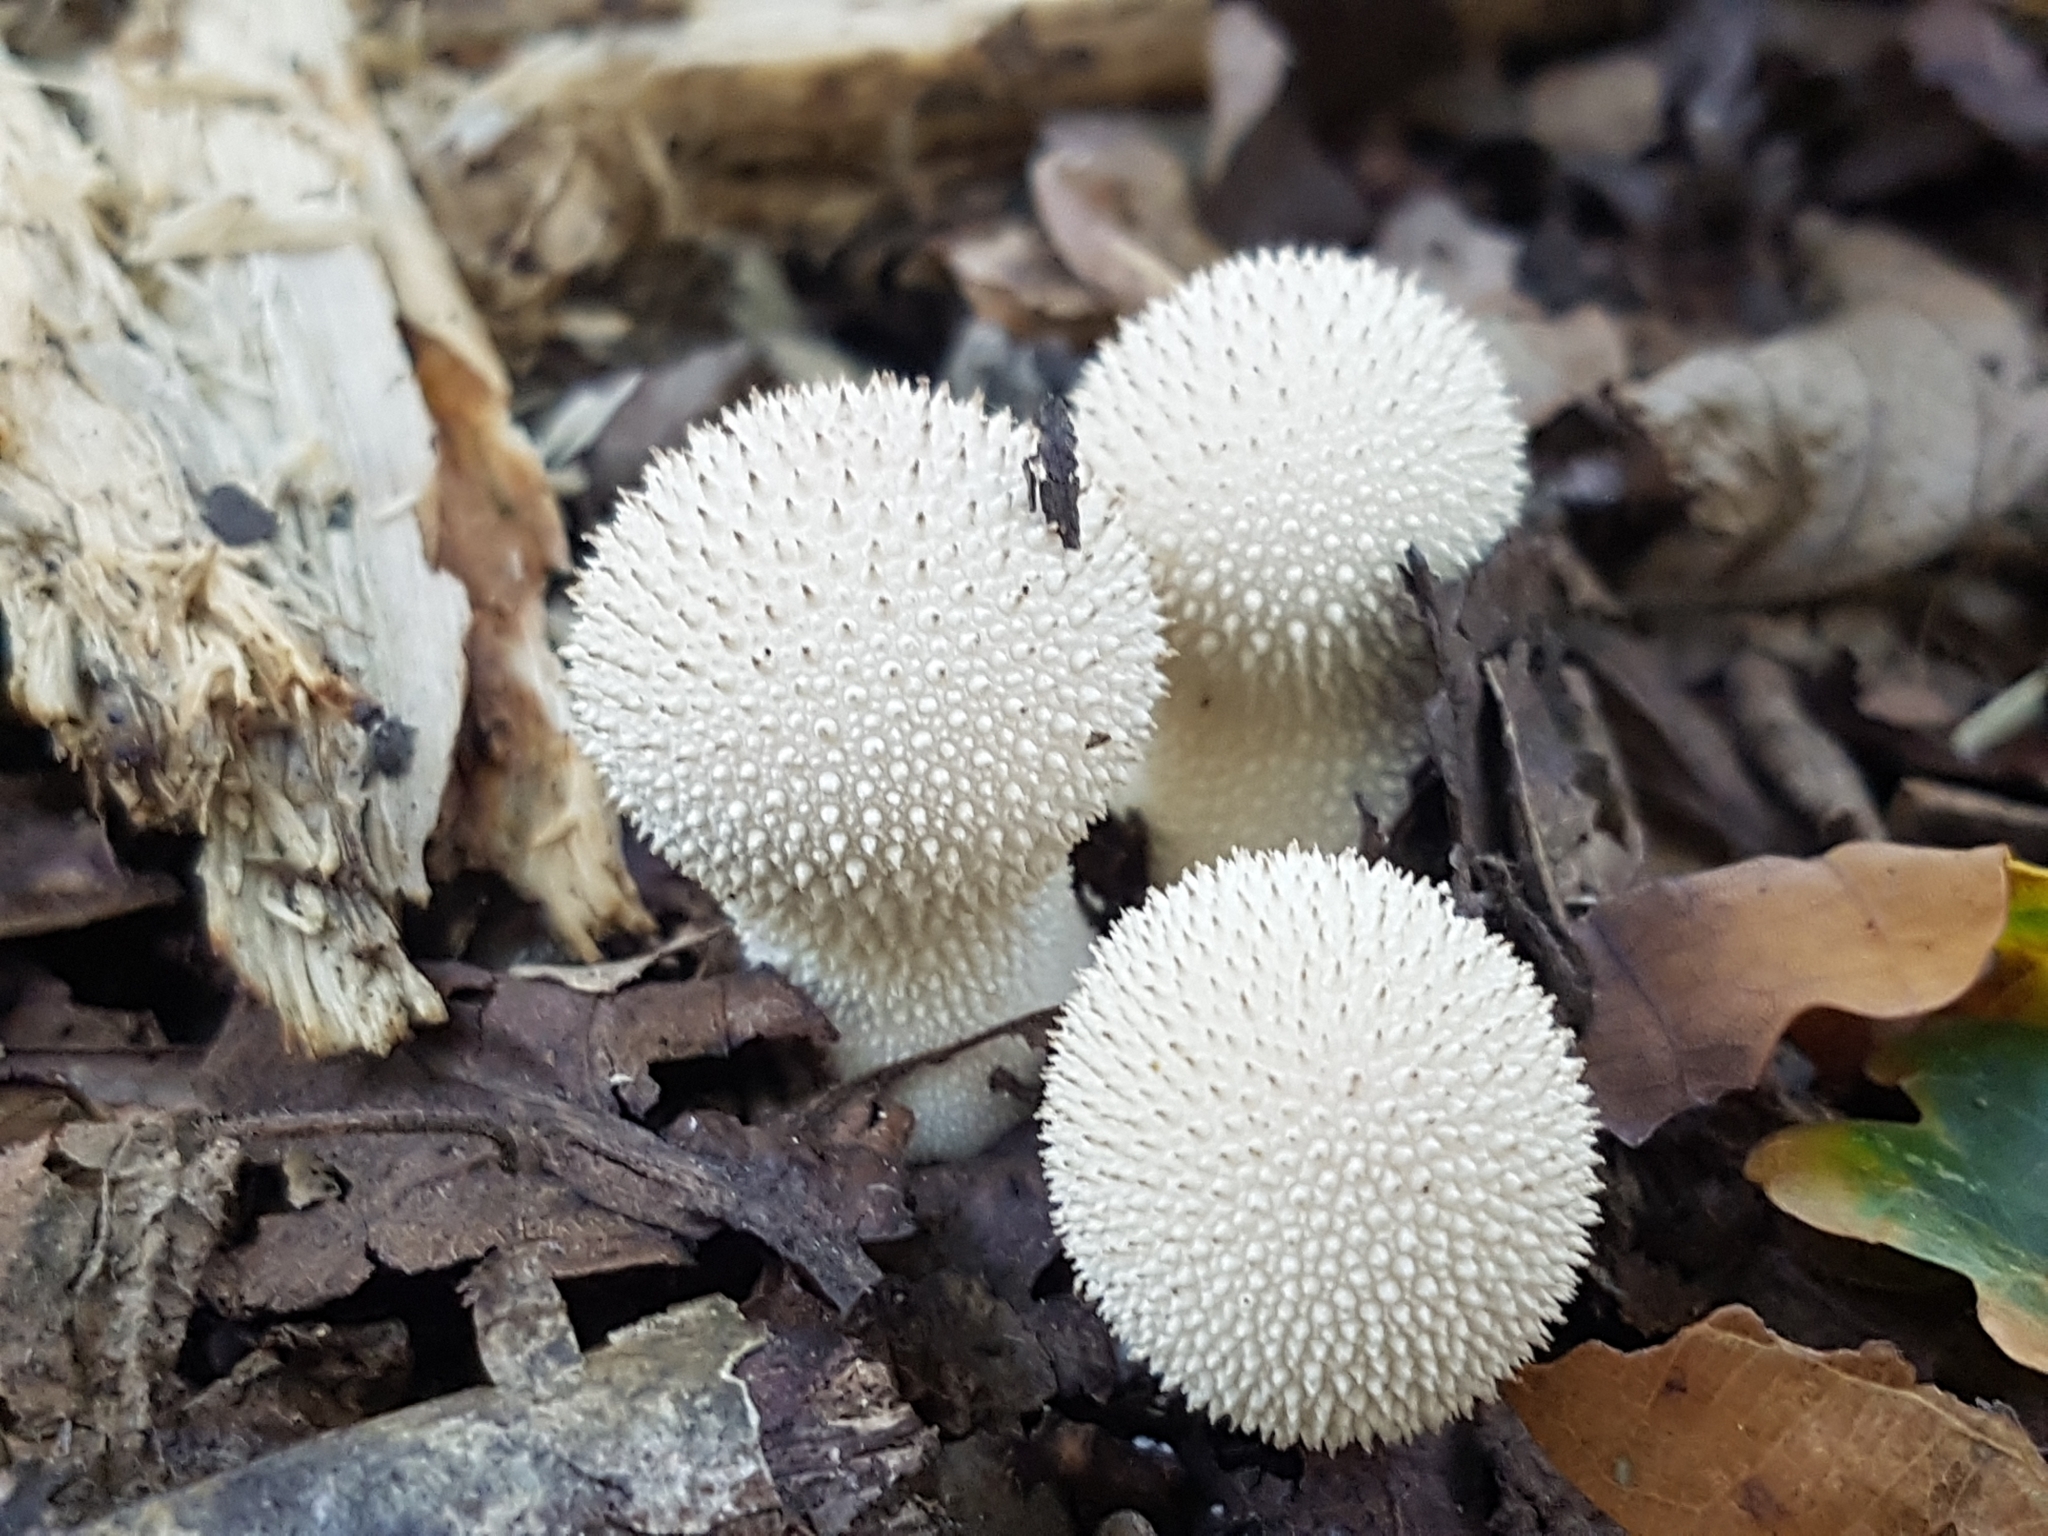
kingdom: Fungi
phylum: Basidiomycota
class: Agaricomycetes
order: Agaricales
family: Lycoperdaceae
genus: Lycoperdon
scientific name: Lycoperdon perlatum
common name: Common puffball
